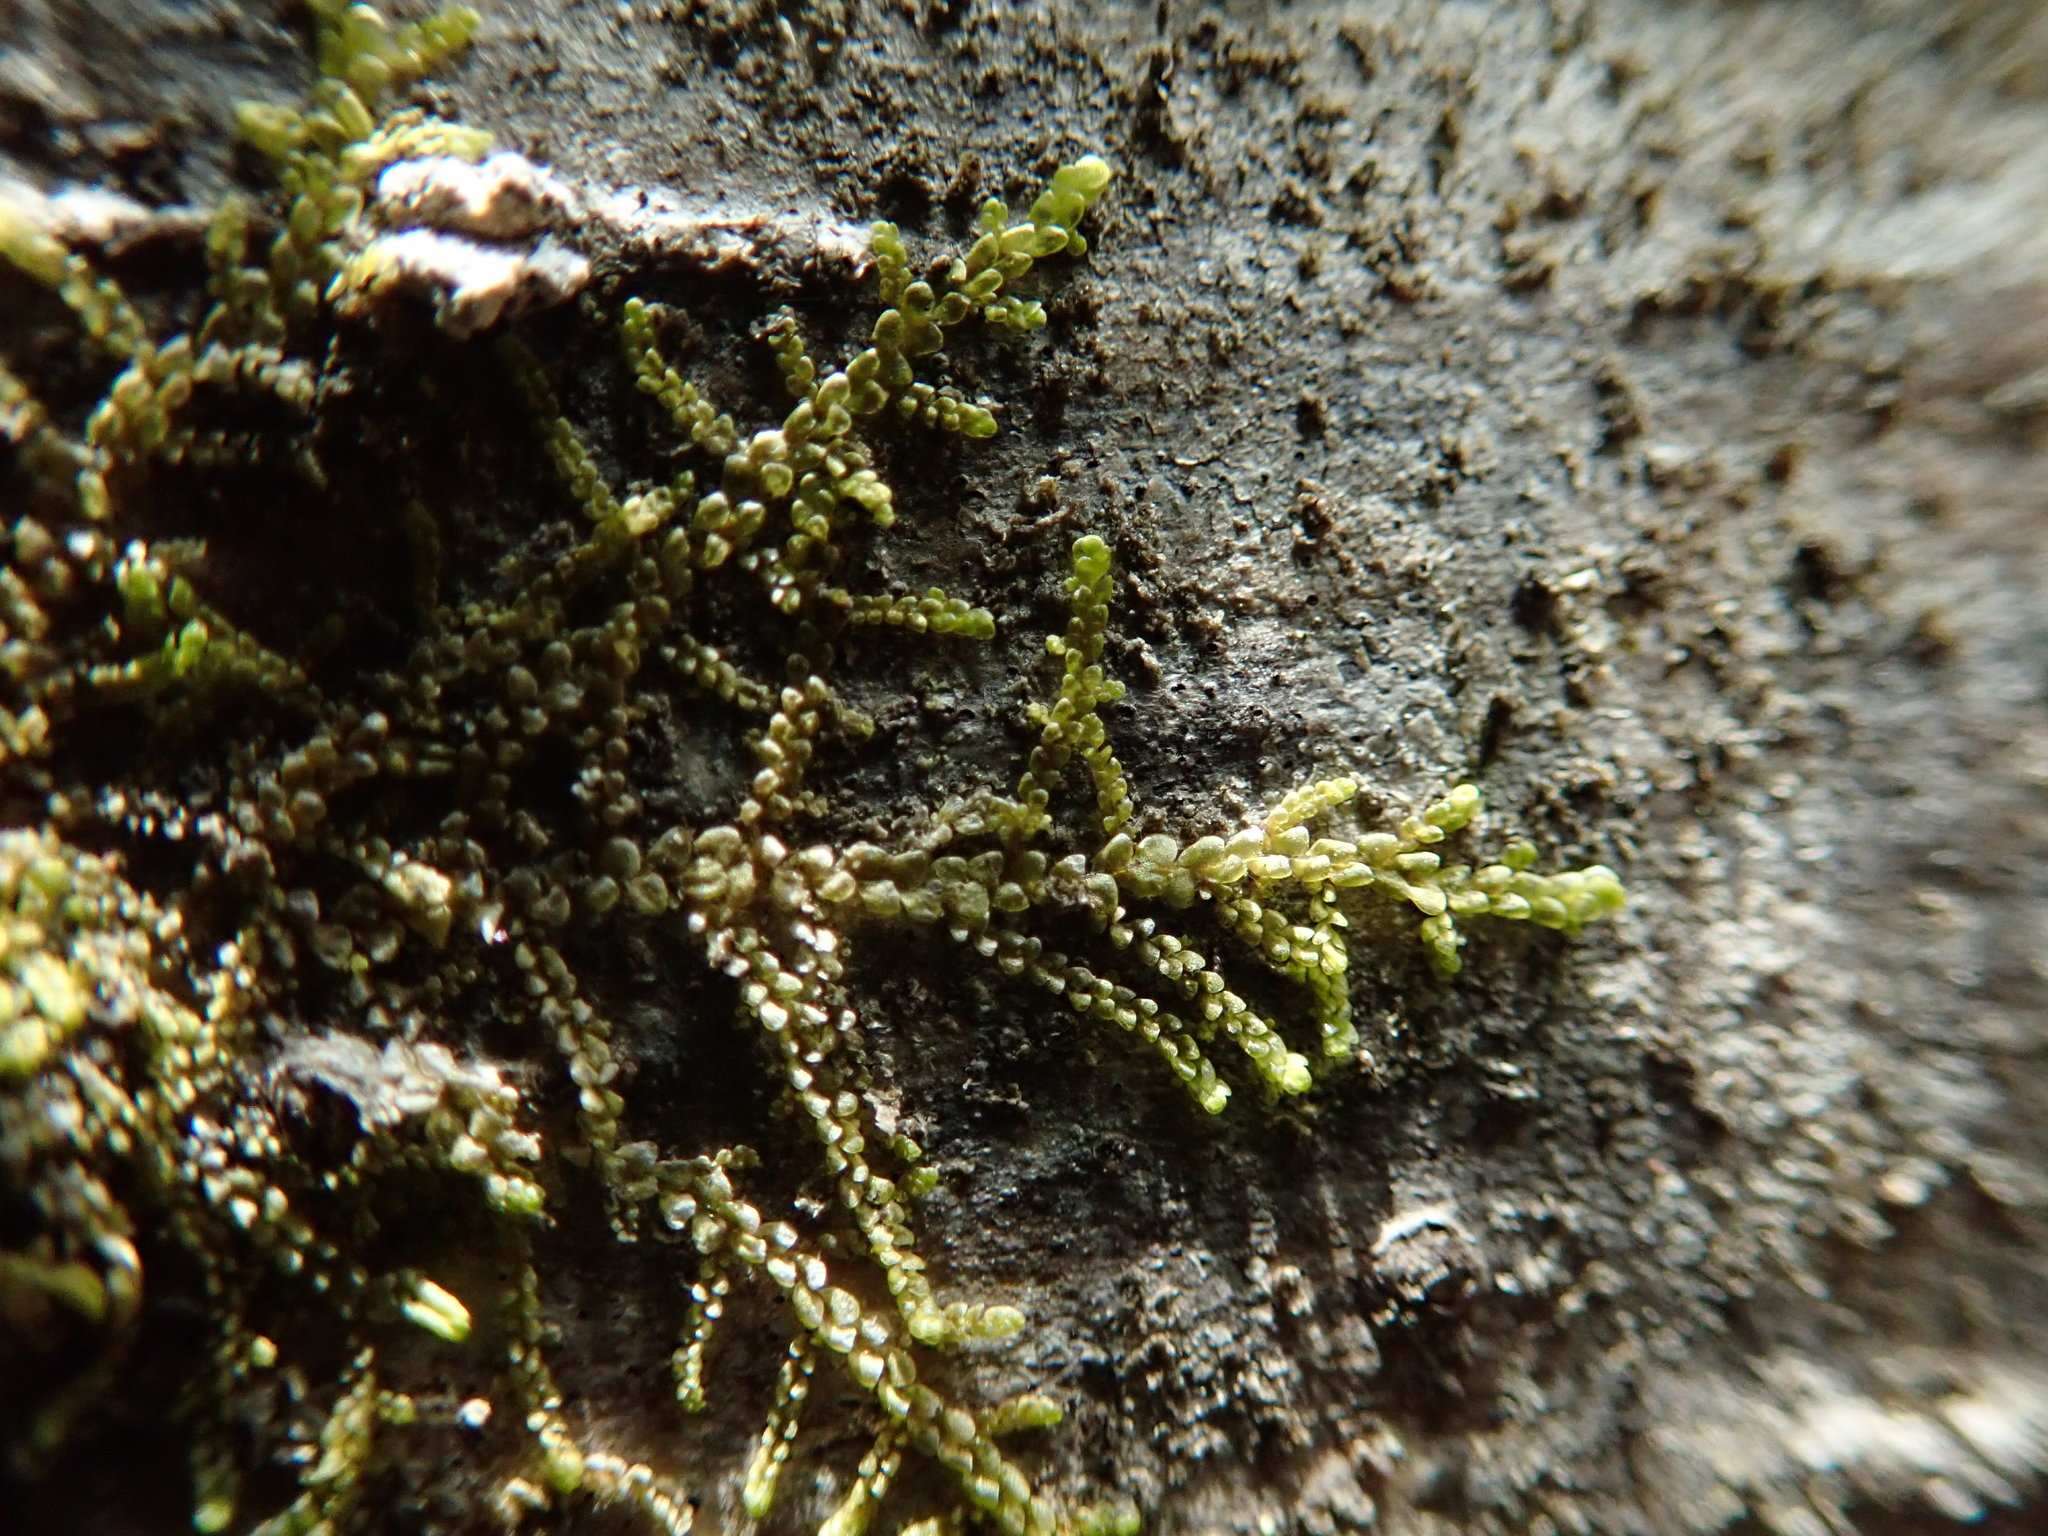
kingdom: Plantae
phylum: Marchantiophyta
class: Jungermanniopsida
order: Porellales
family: Radulaceae
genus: Radula
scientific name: Radula bolanderi
